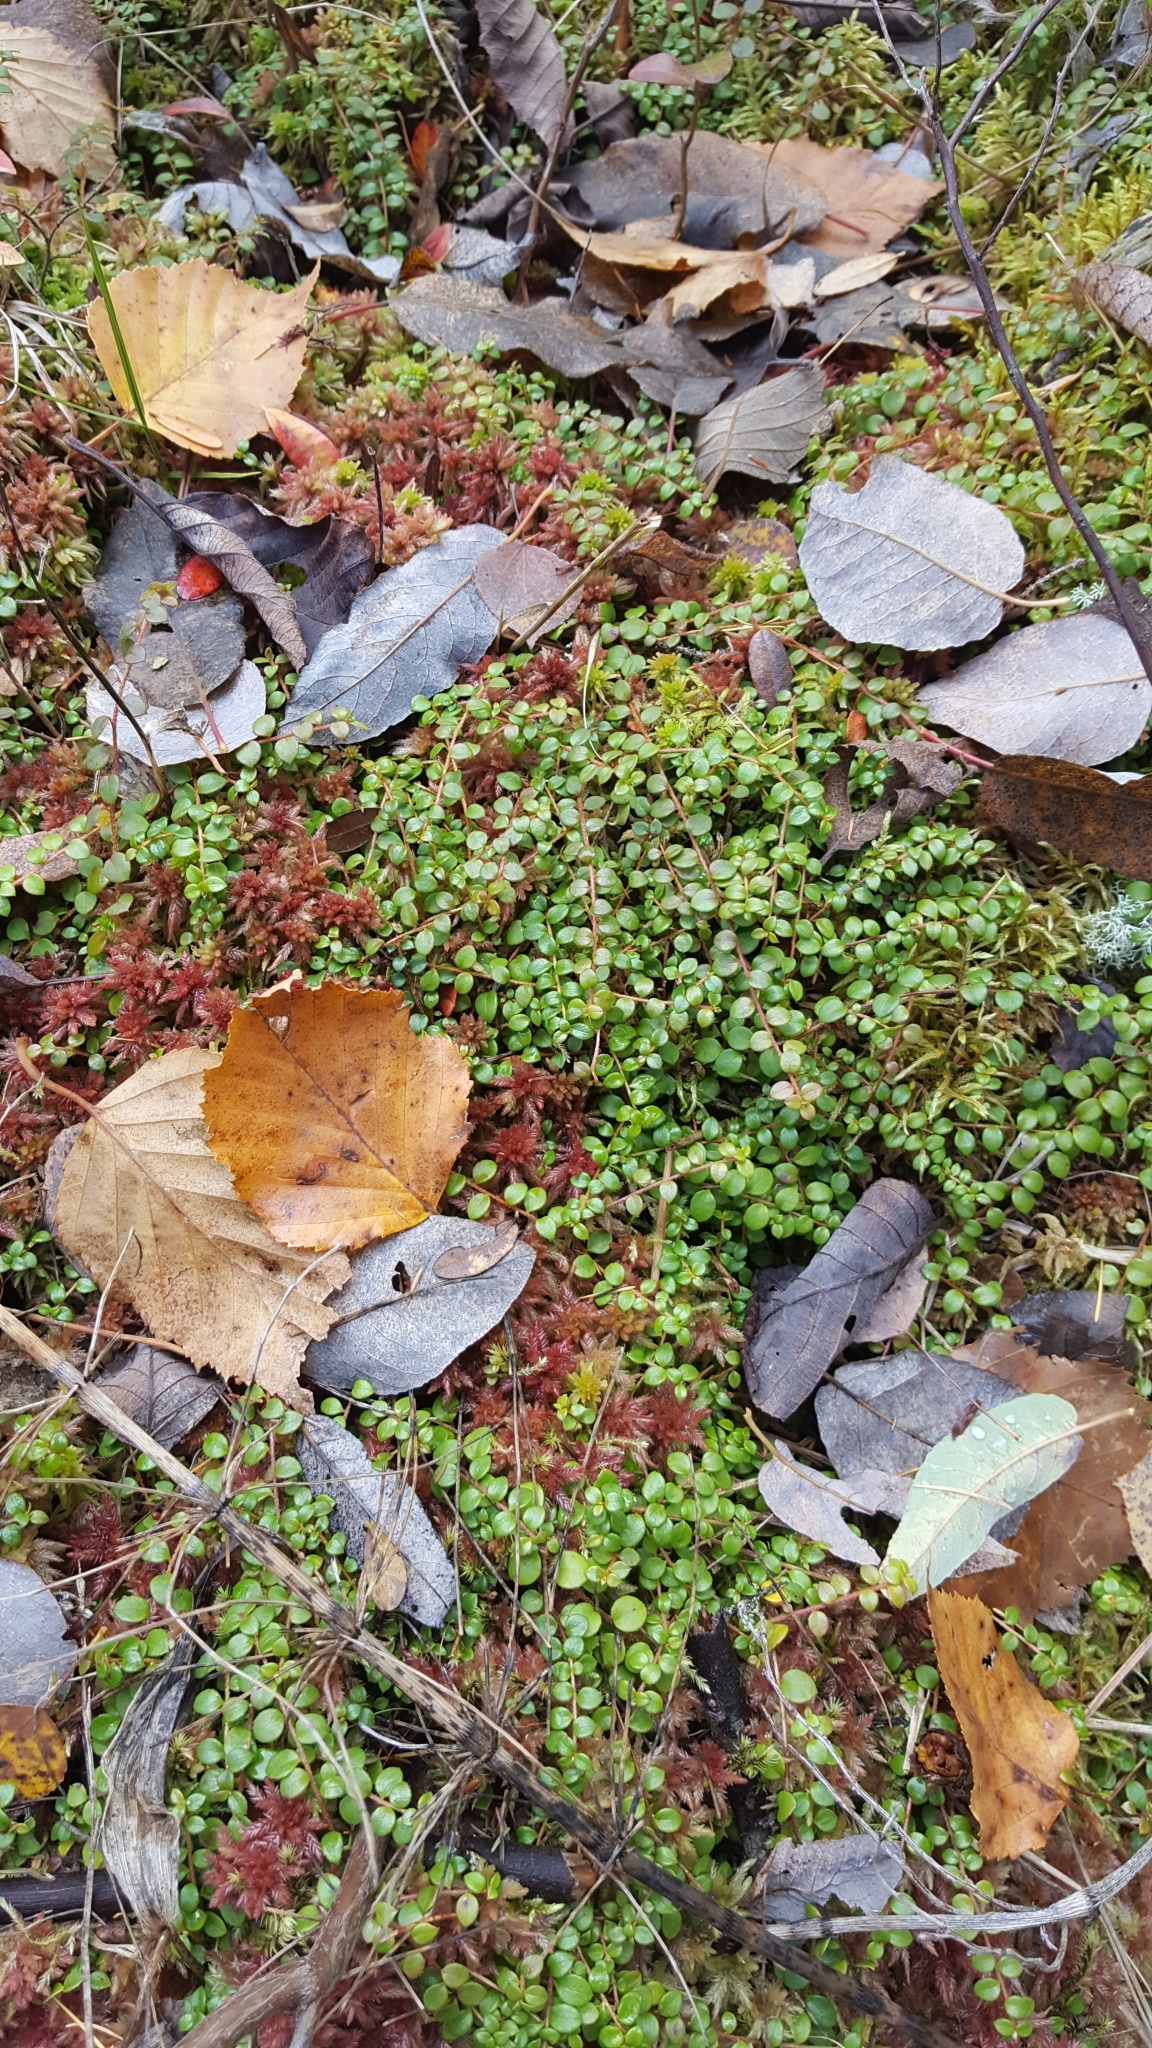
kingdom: Plantae
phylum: Tracheophyta
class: Magnoliopsida
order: Ericales
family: Ericaceae
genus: Gaultheria
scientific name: Gaultheria hispidula
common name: Cancer wintergreen
